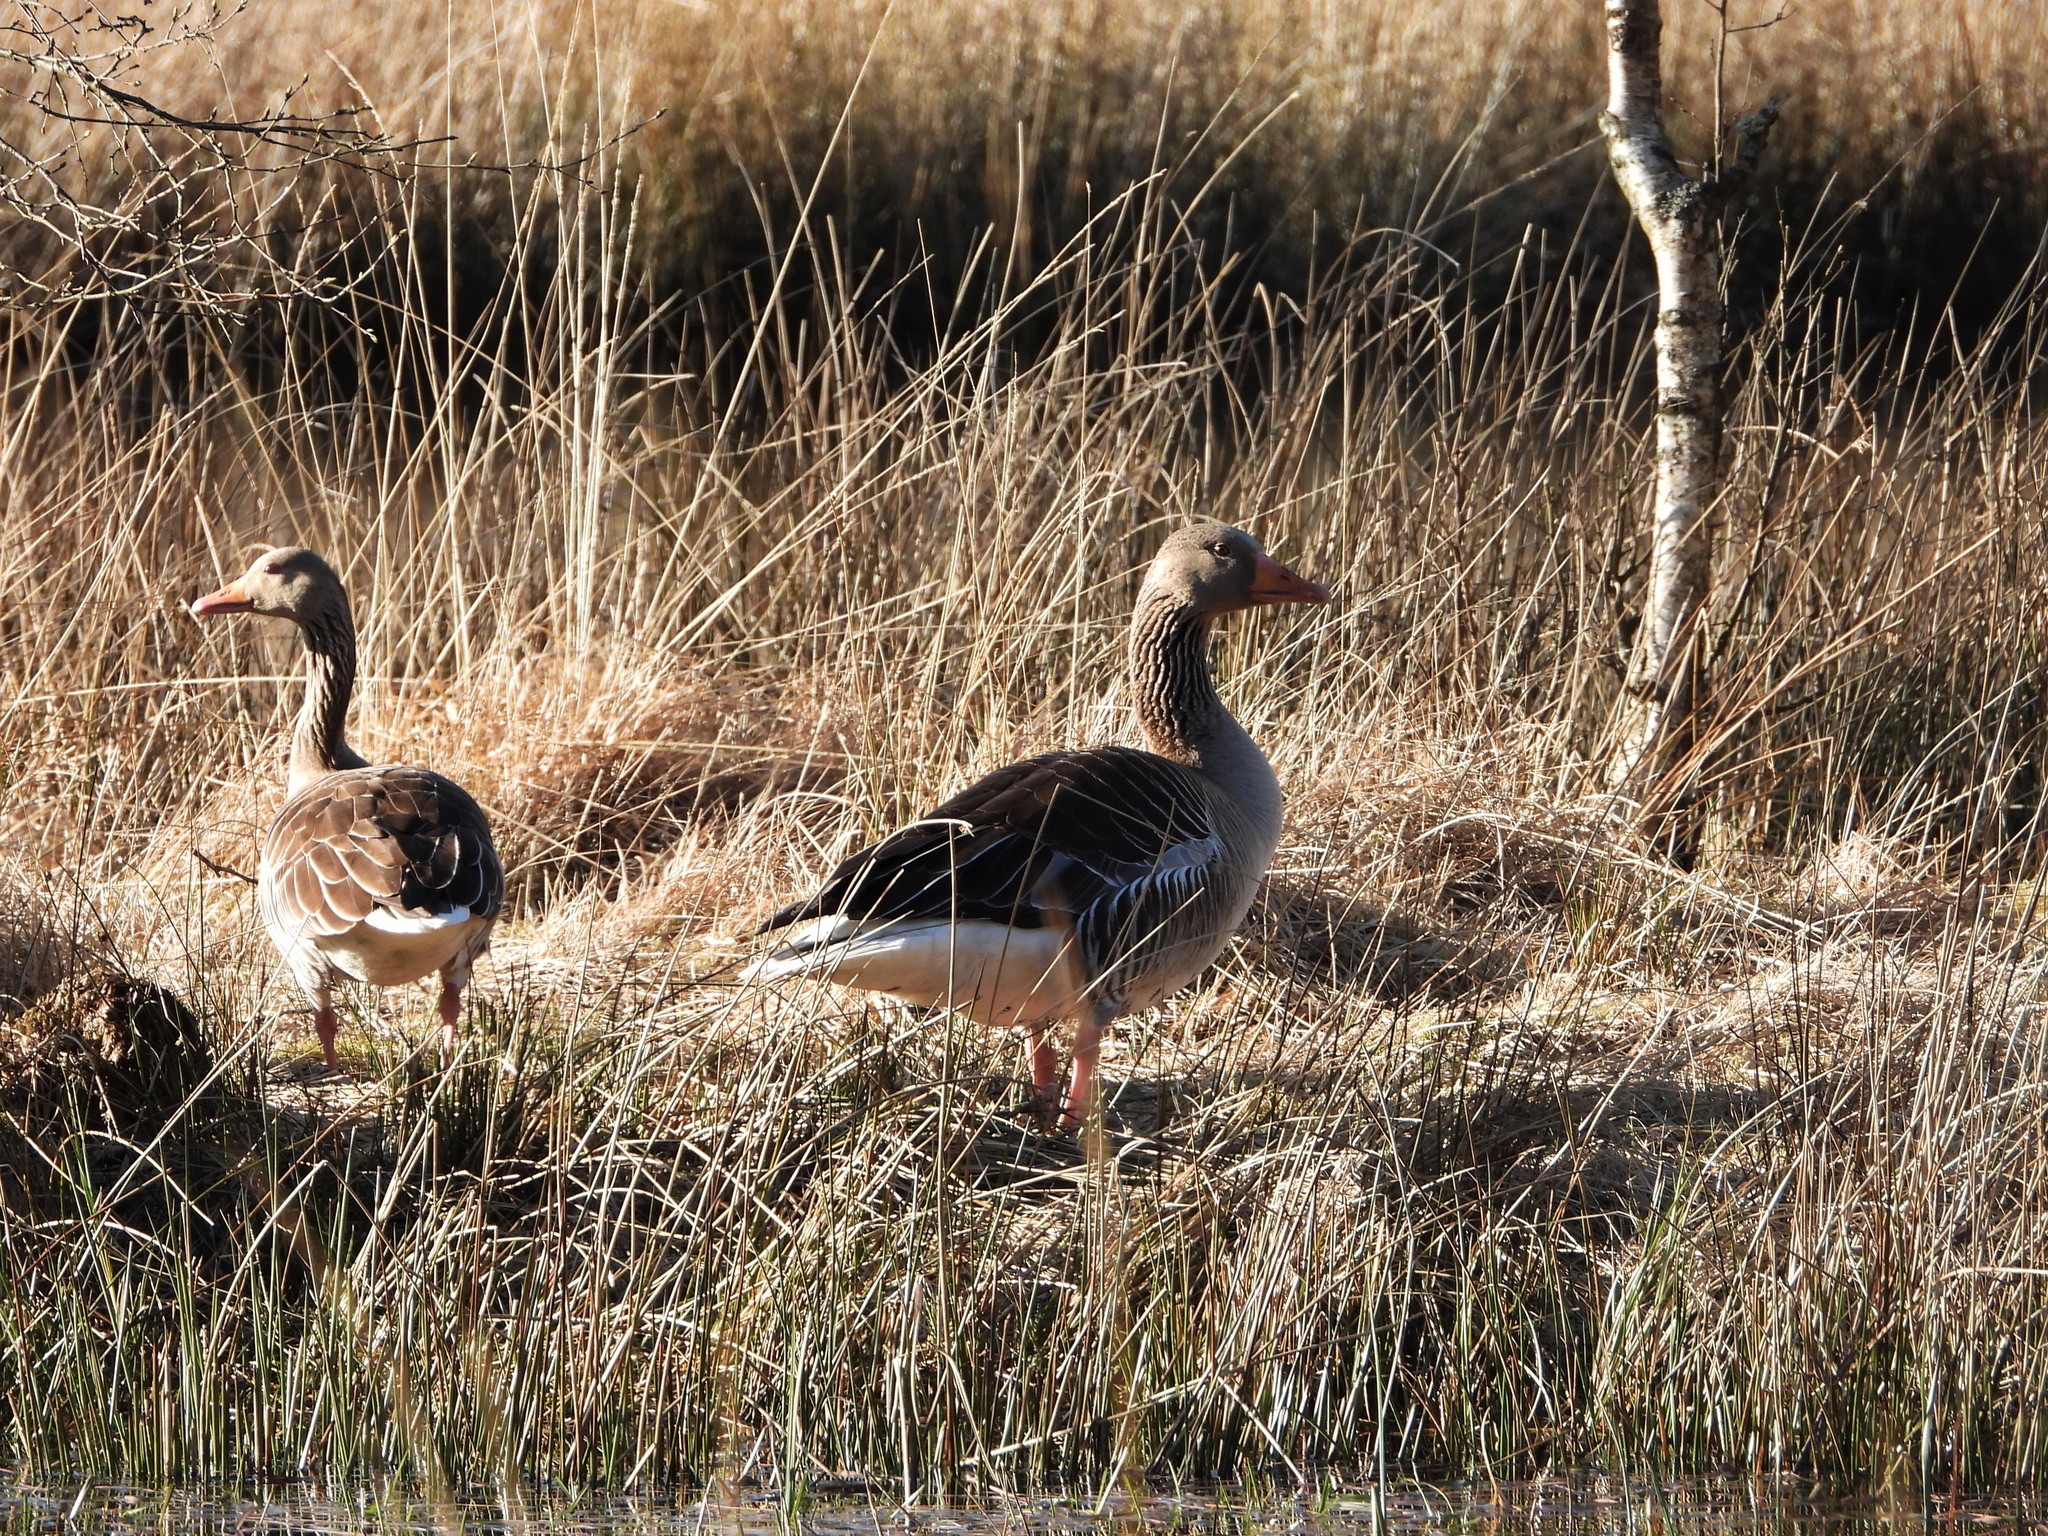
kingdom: Animalia
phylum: Chordata
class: Aves
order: Anseriformes
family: Anatidae
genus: Anser
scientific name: Anser anser
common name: Greylag goose
